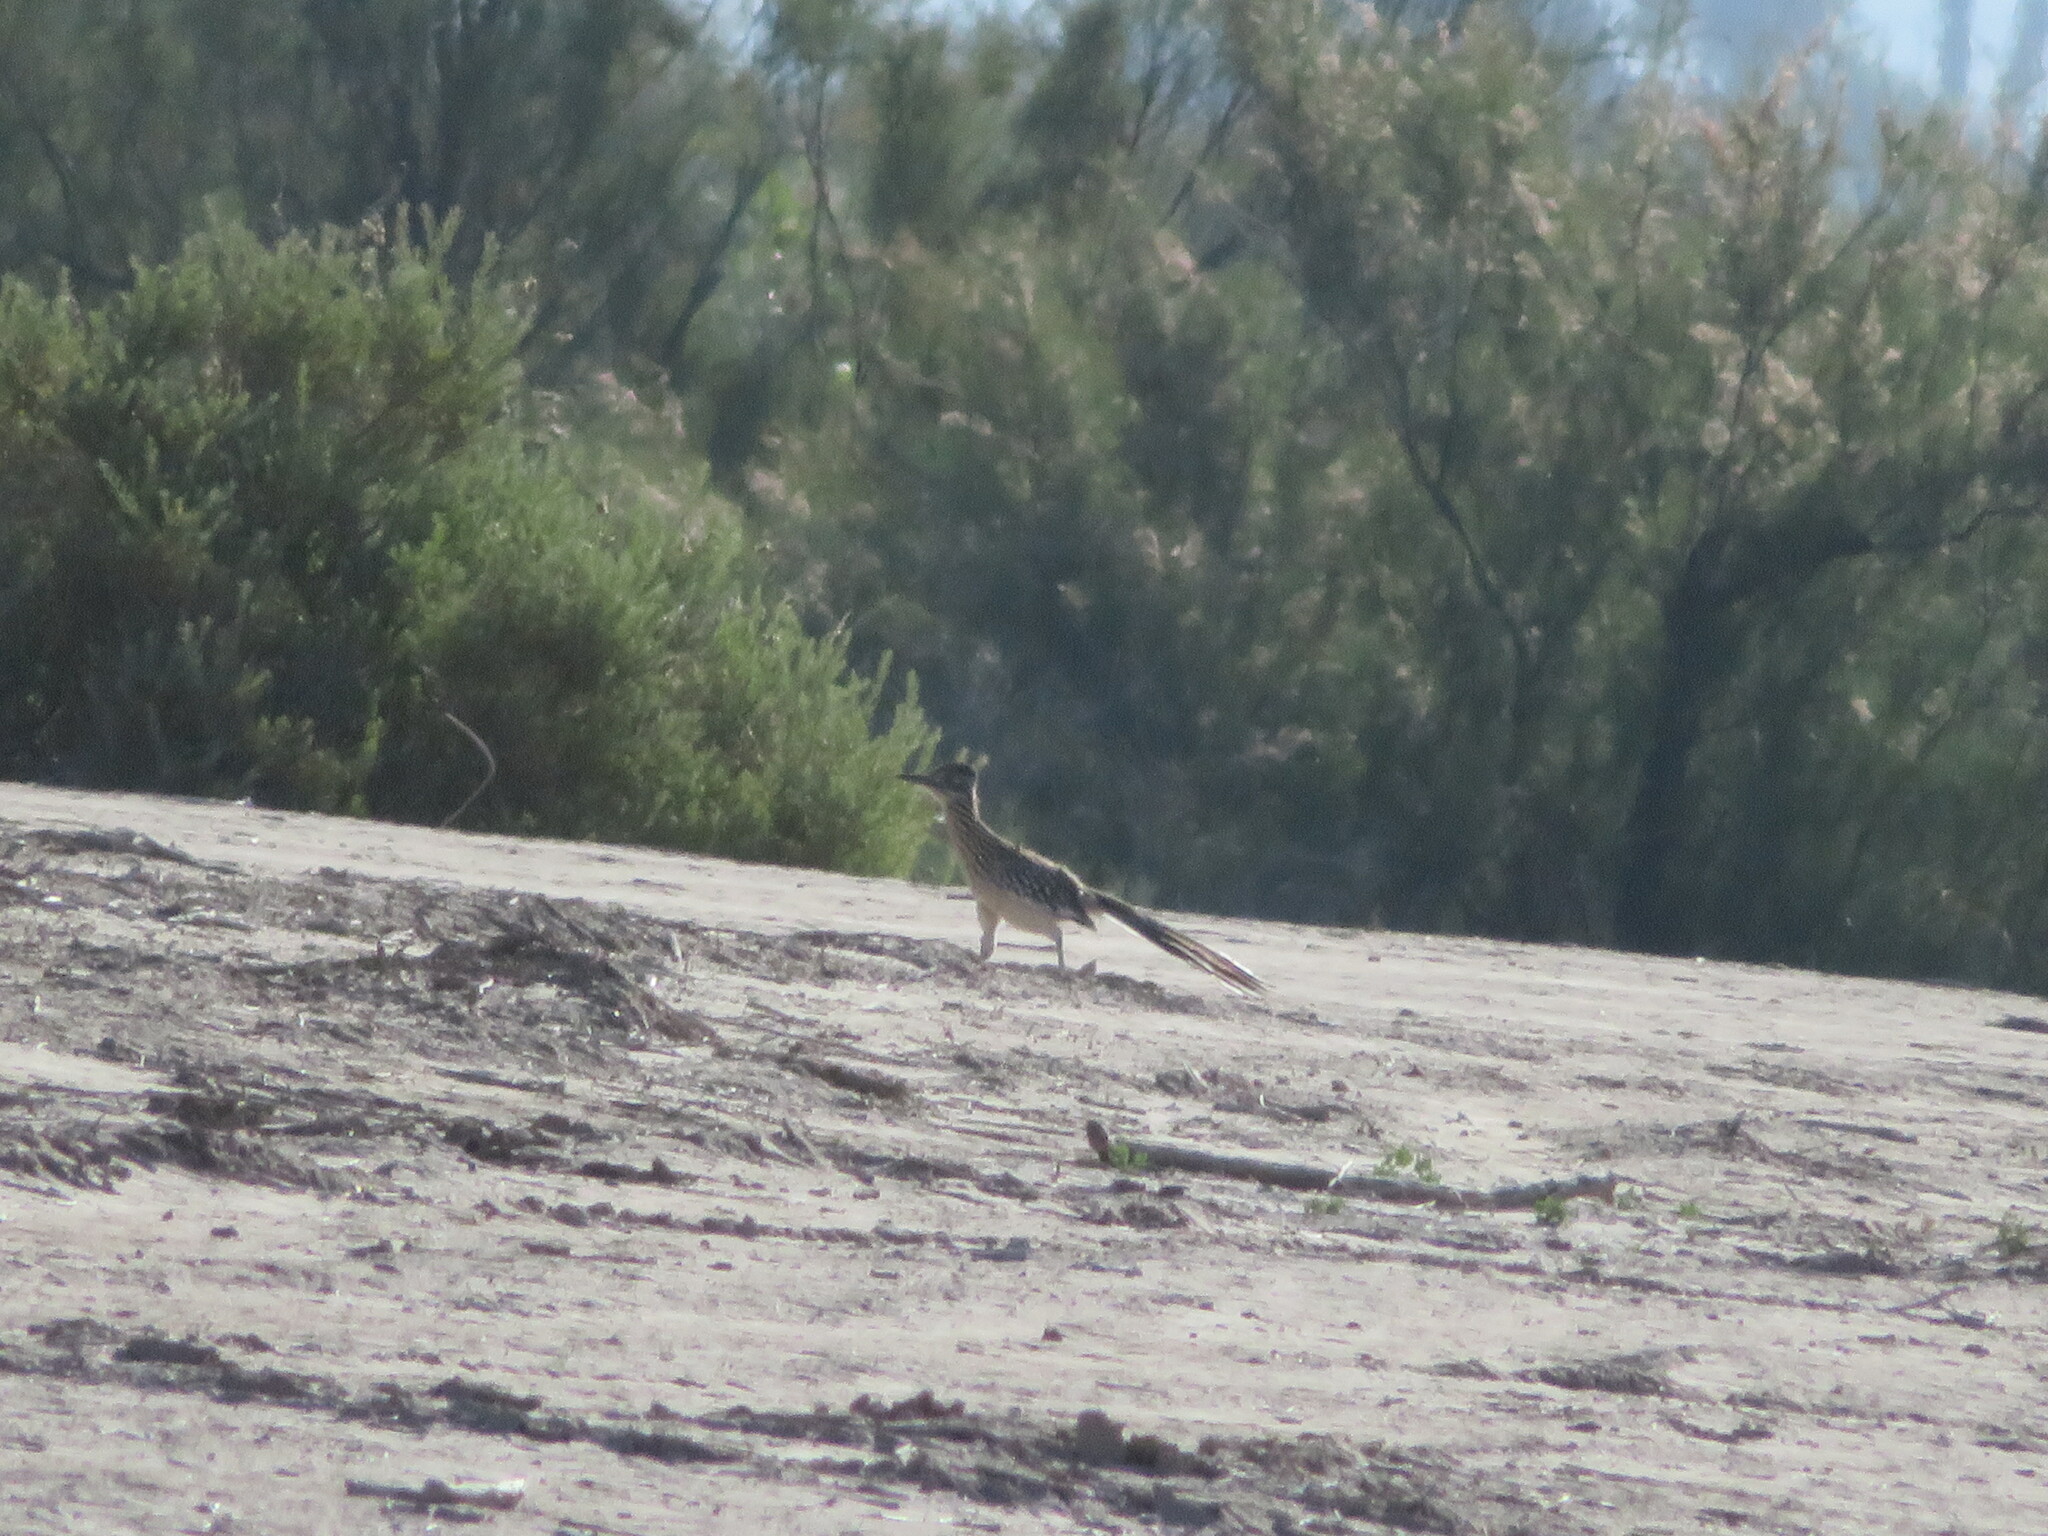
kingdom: Animalia
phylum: Chordata
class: Aves
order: Cuculiformes
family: Cuculidae
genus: Geococcyx
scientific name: Geococcyx californianus
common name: Greater roadrunner
